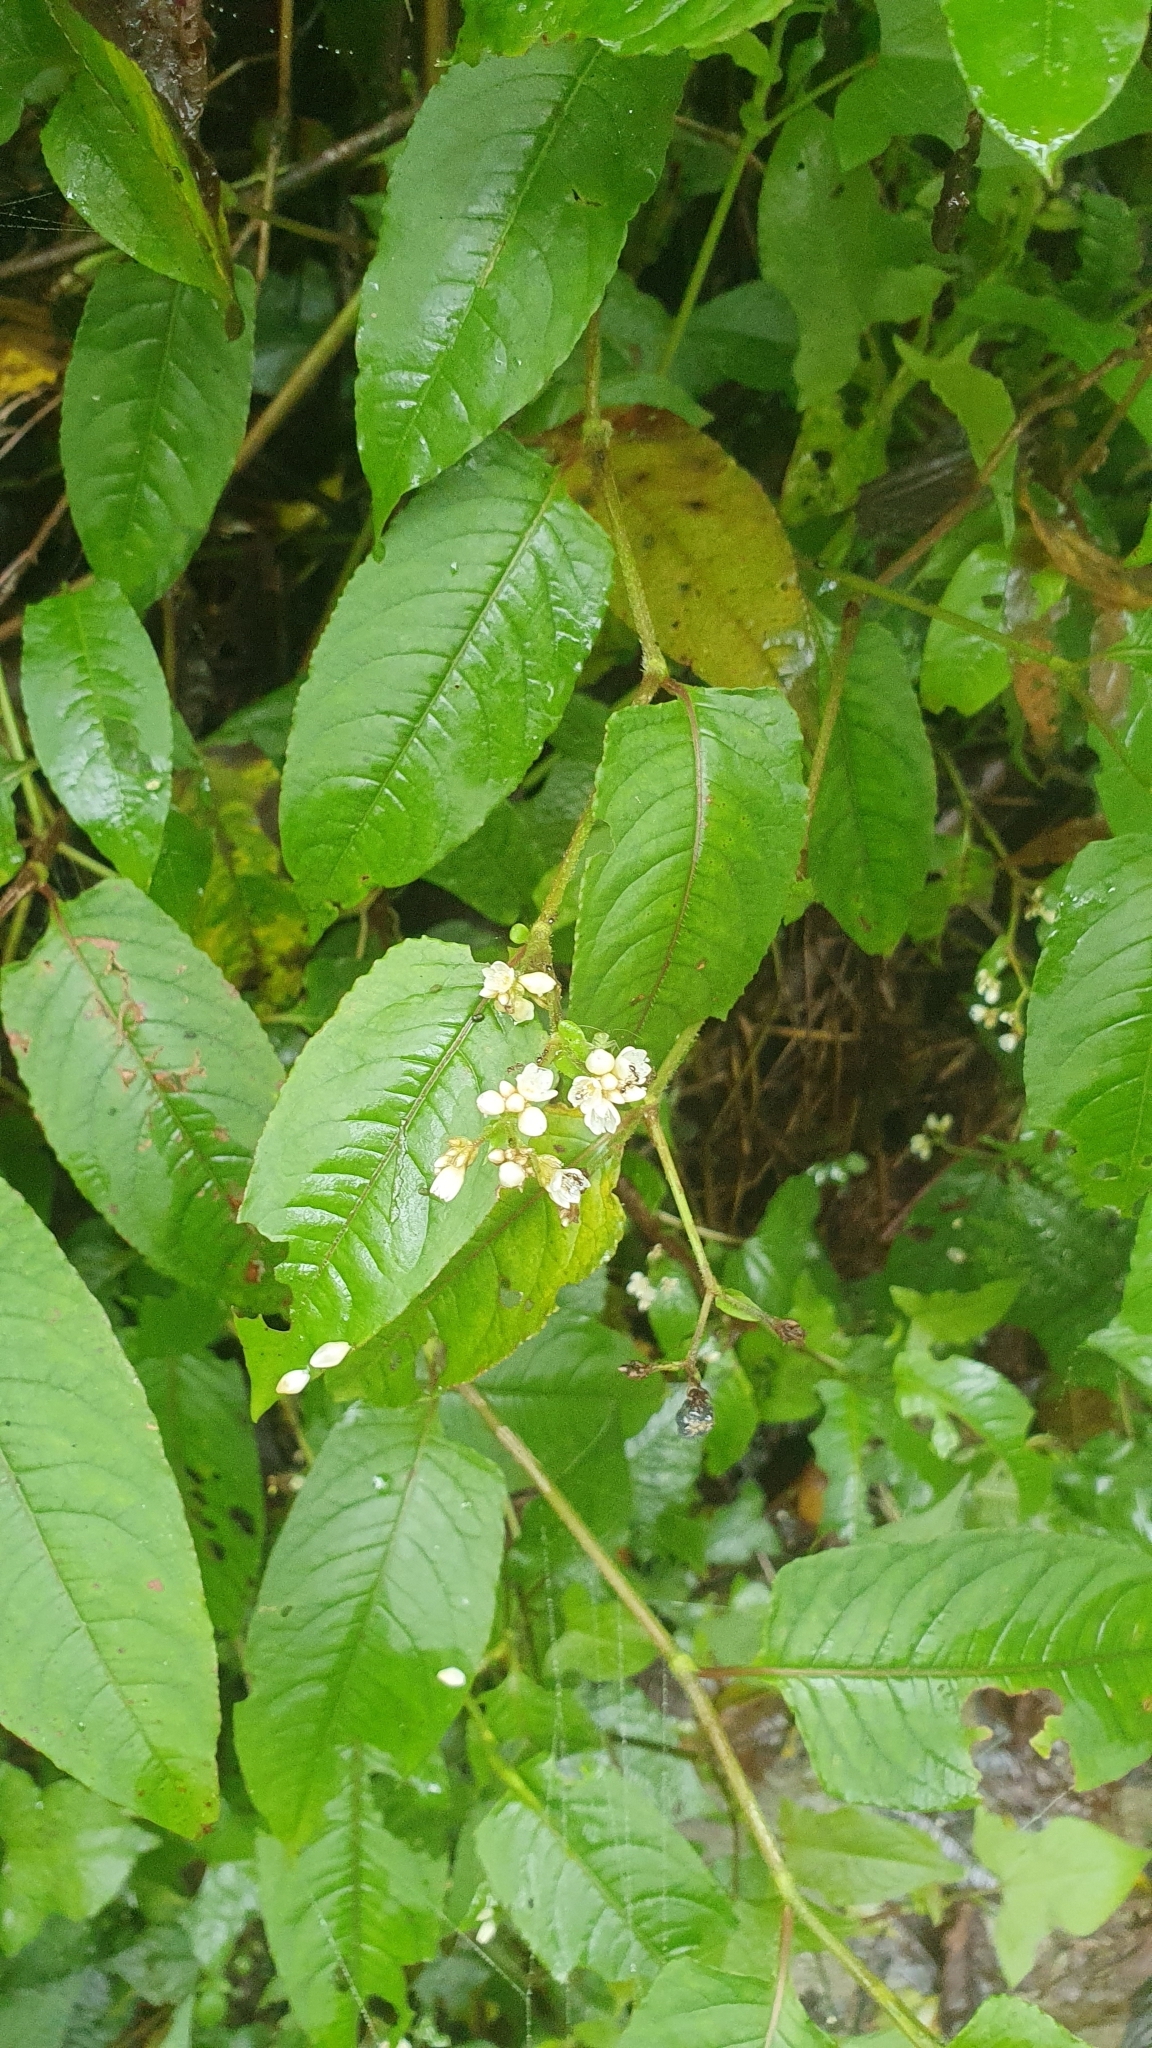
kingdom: Plantae
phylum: Tracheophyta
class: Magnoliopsida
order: Caryophyllales
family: Polygonaceae
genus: Persicaria
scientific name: Persicaria chinensis
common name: Chinese knotweed
